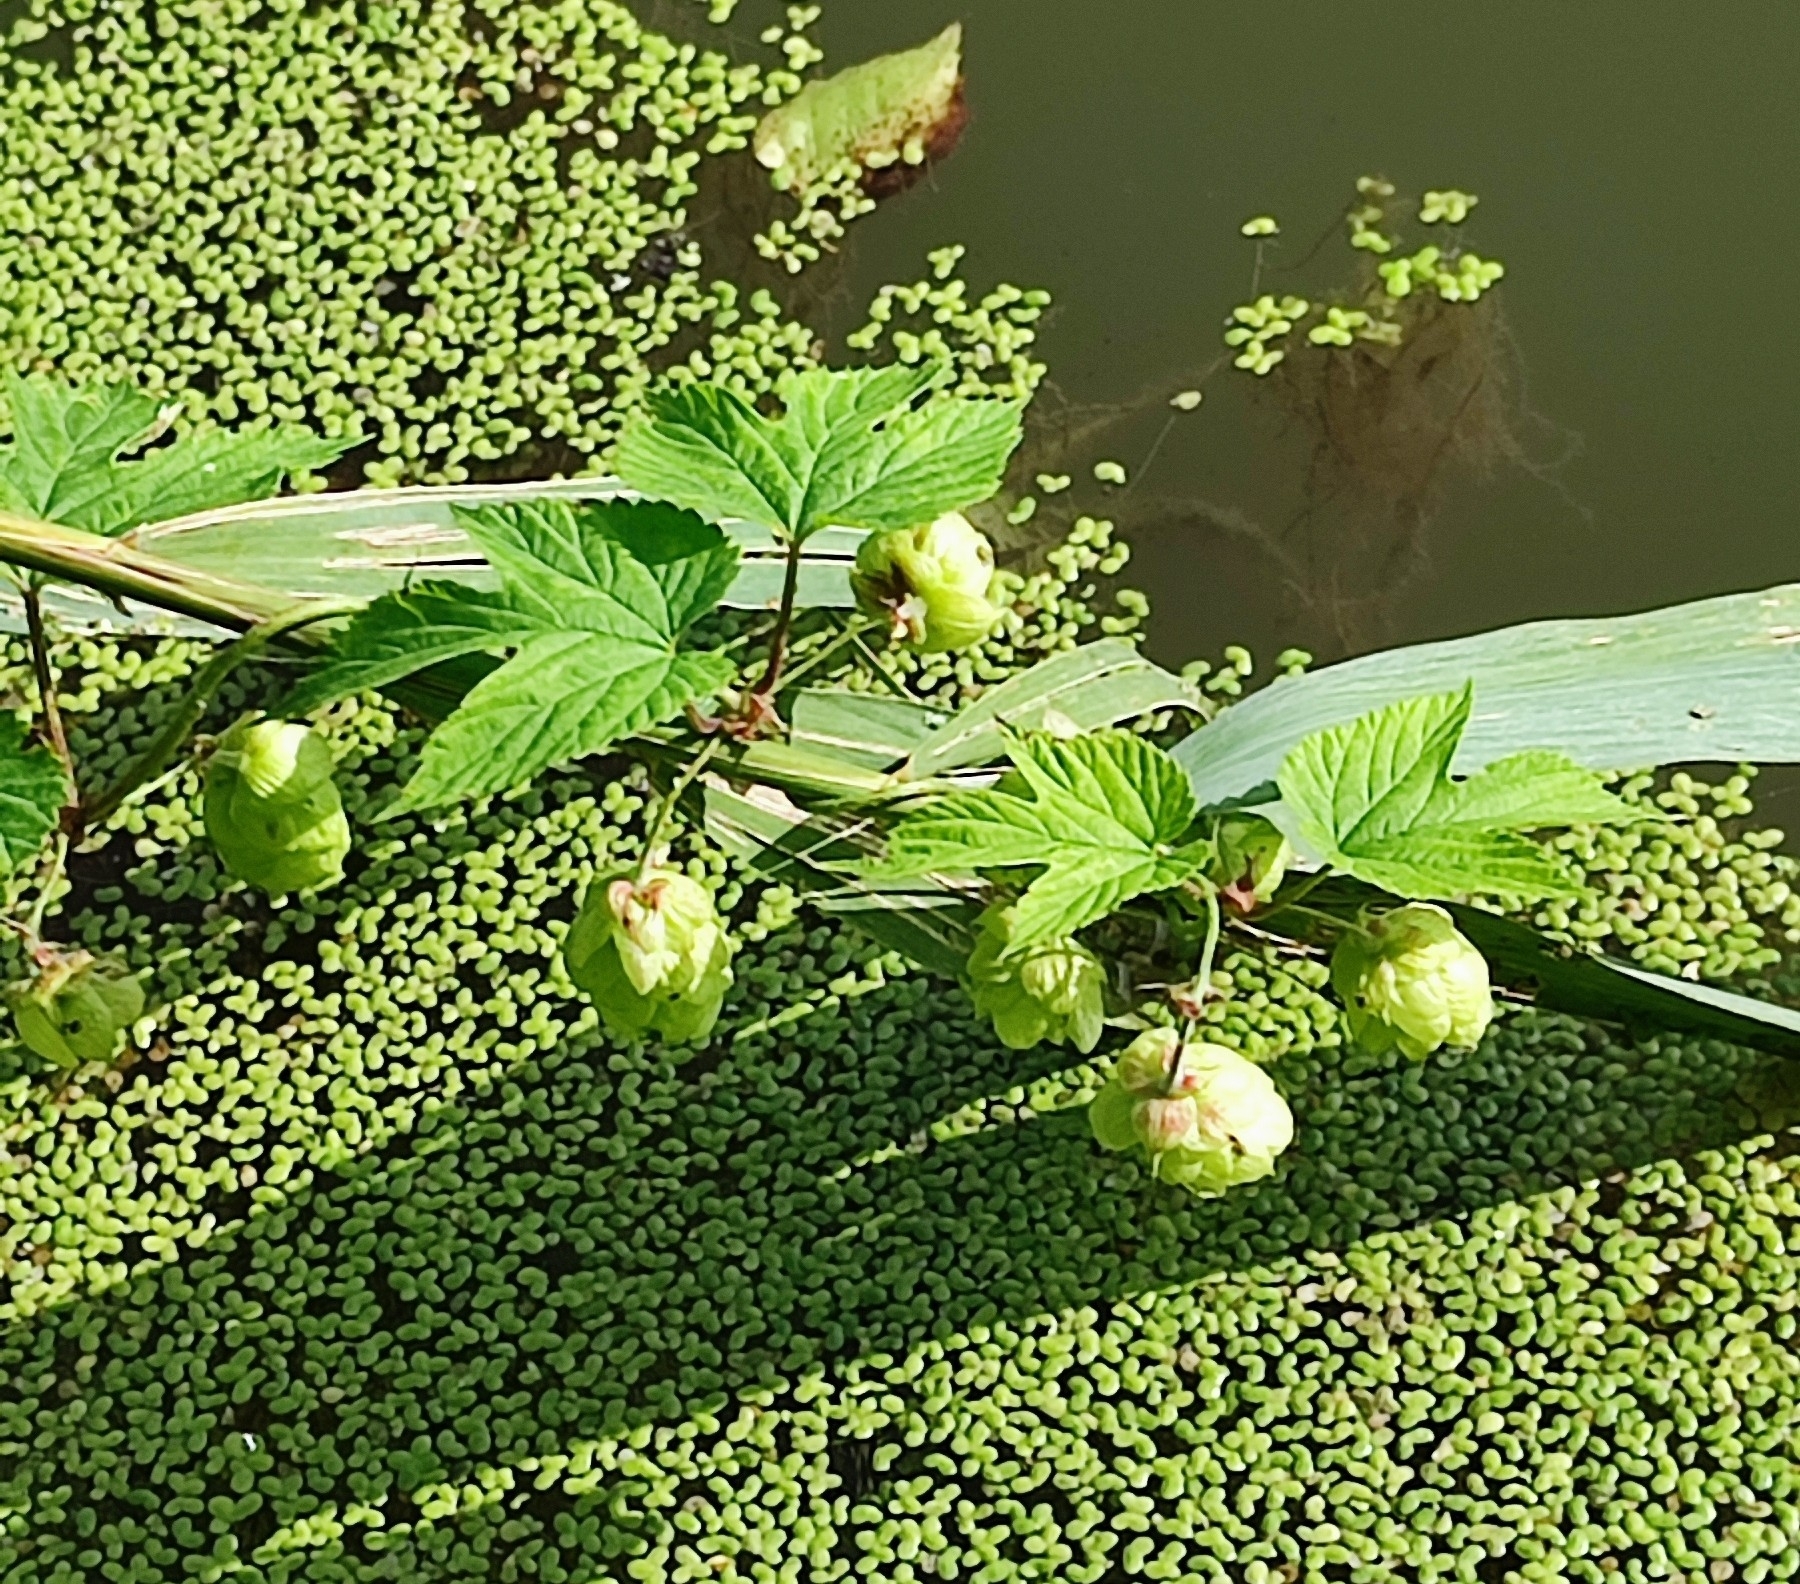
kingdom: Plantae
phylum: Tracheophyta
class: Magnoliopsida
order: Rosales
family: Cannabaceae
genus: Humulus
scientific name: Humulus lupulus
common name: Hop
